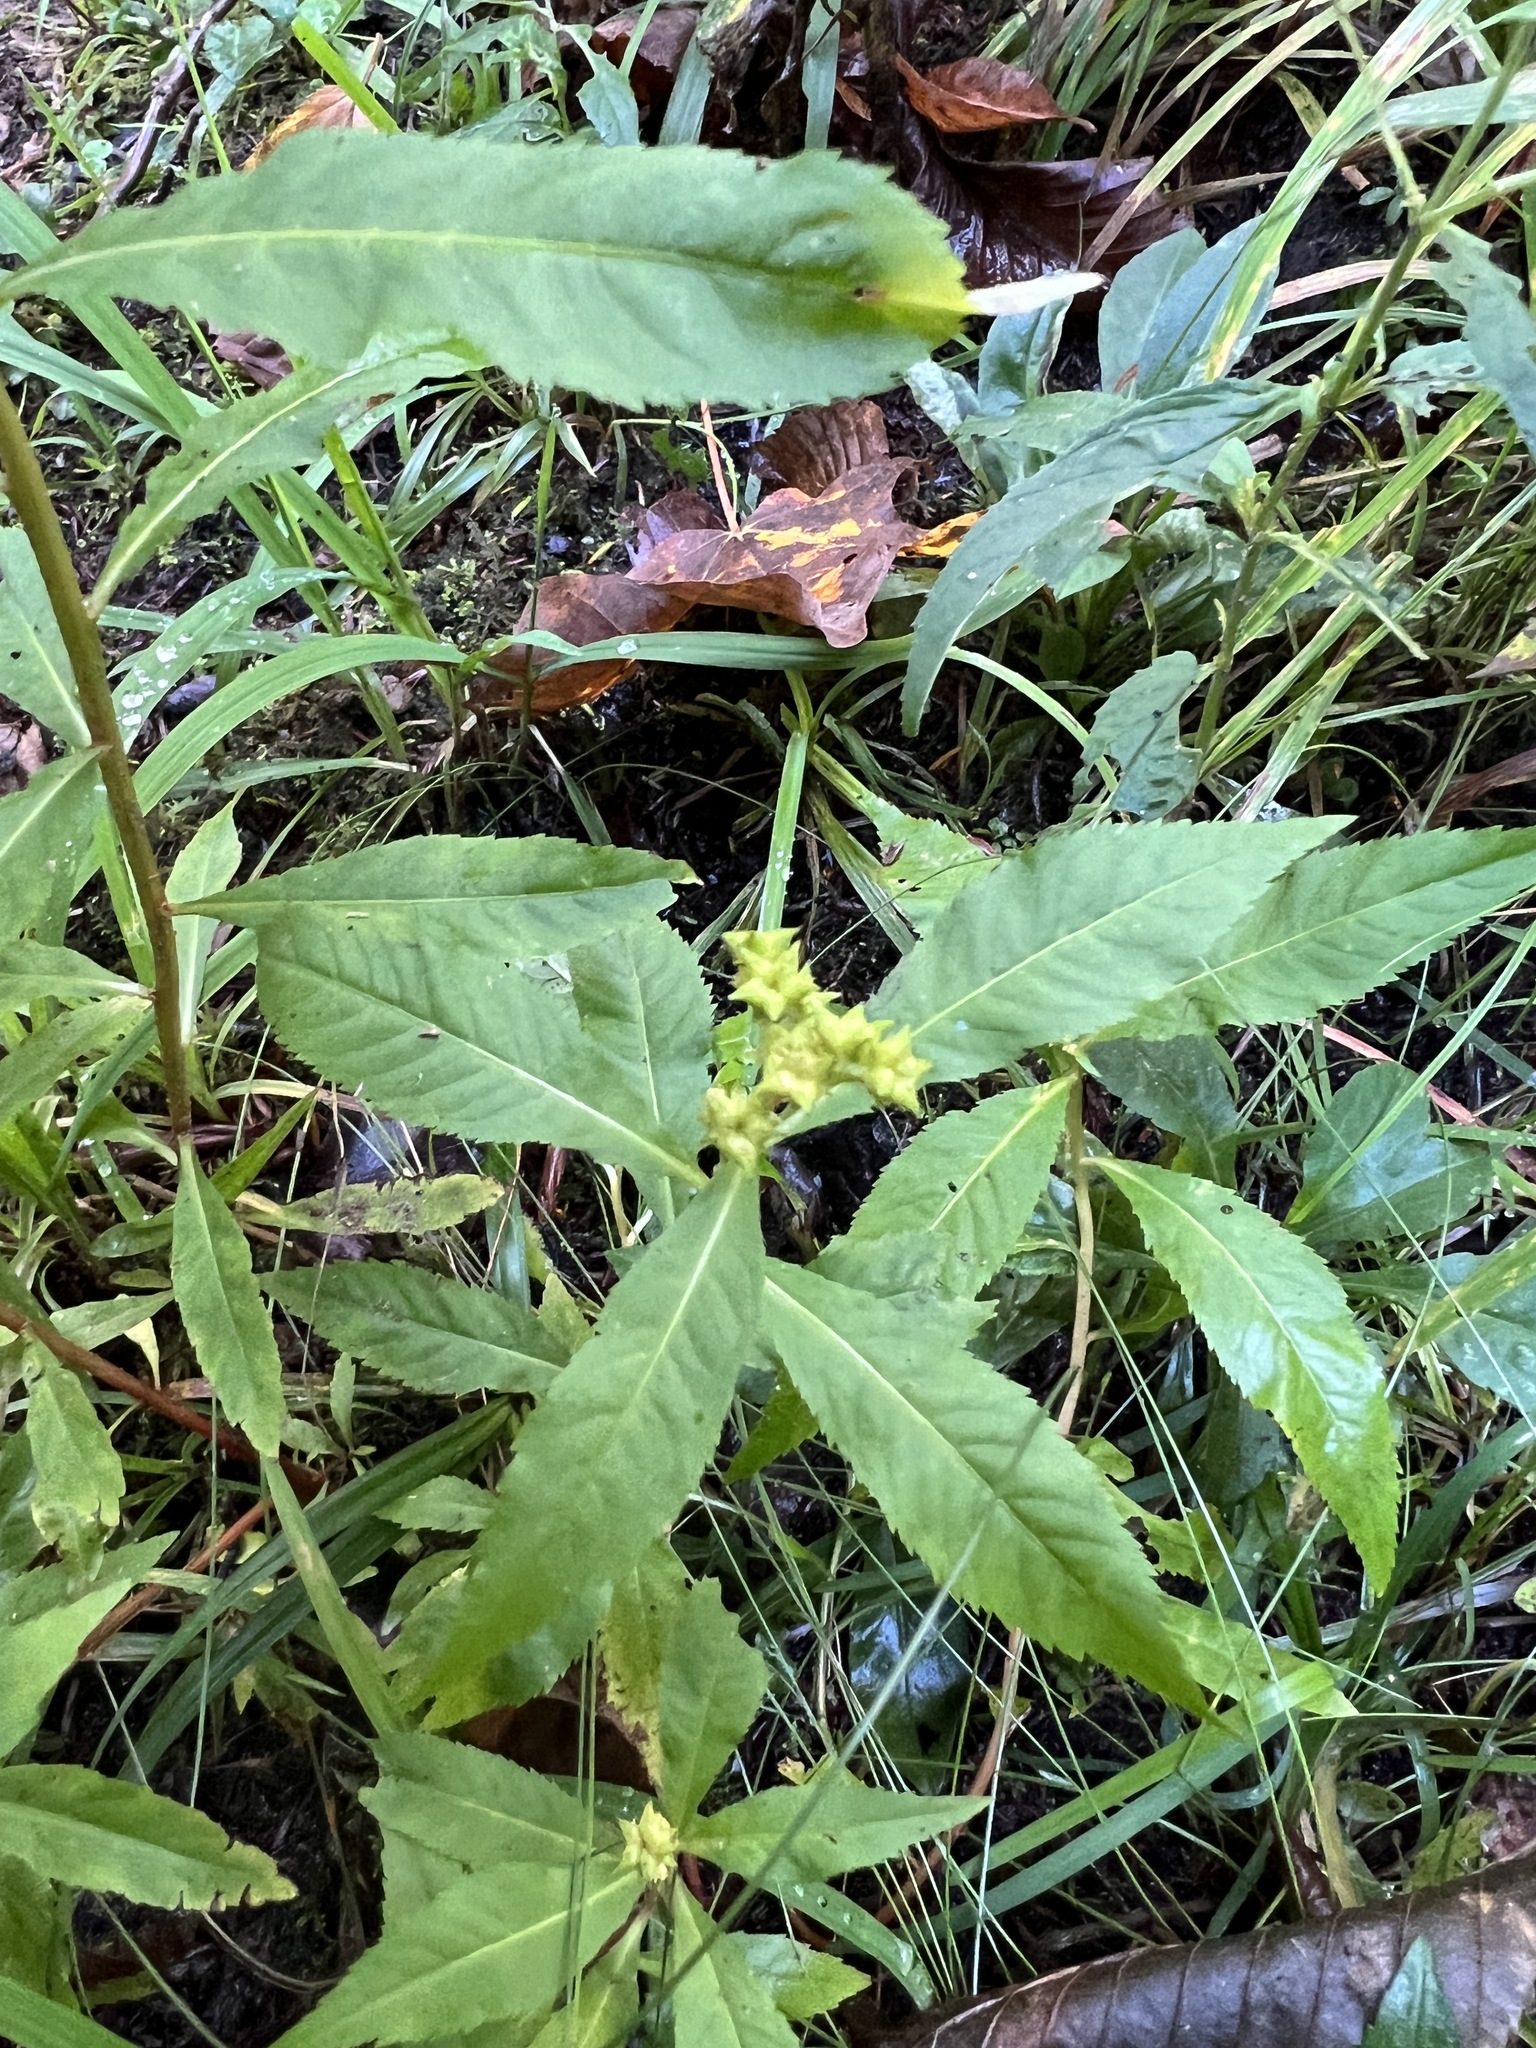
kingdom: Plantae
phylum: Tracheophyta
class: Magnoliopsida
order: Saxifragales
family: Penthoraceae
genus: Penthorum
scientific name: Penthorum sedoides
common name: Ditch stonecrop
